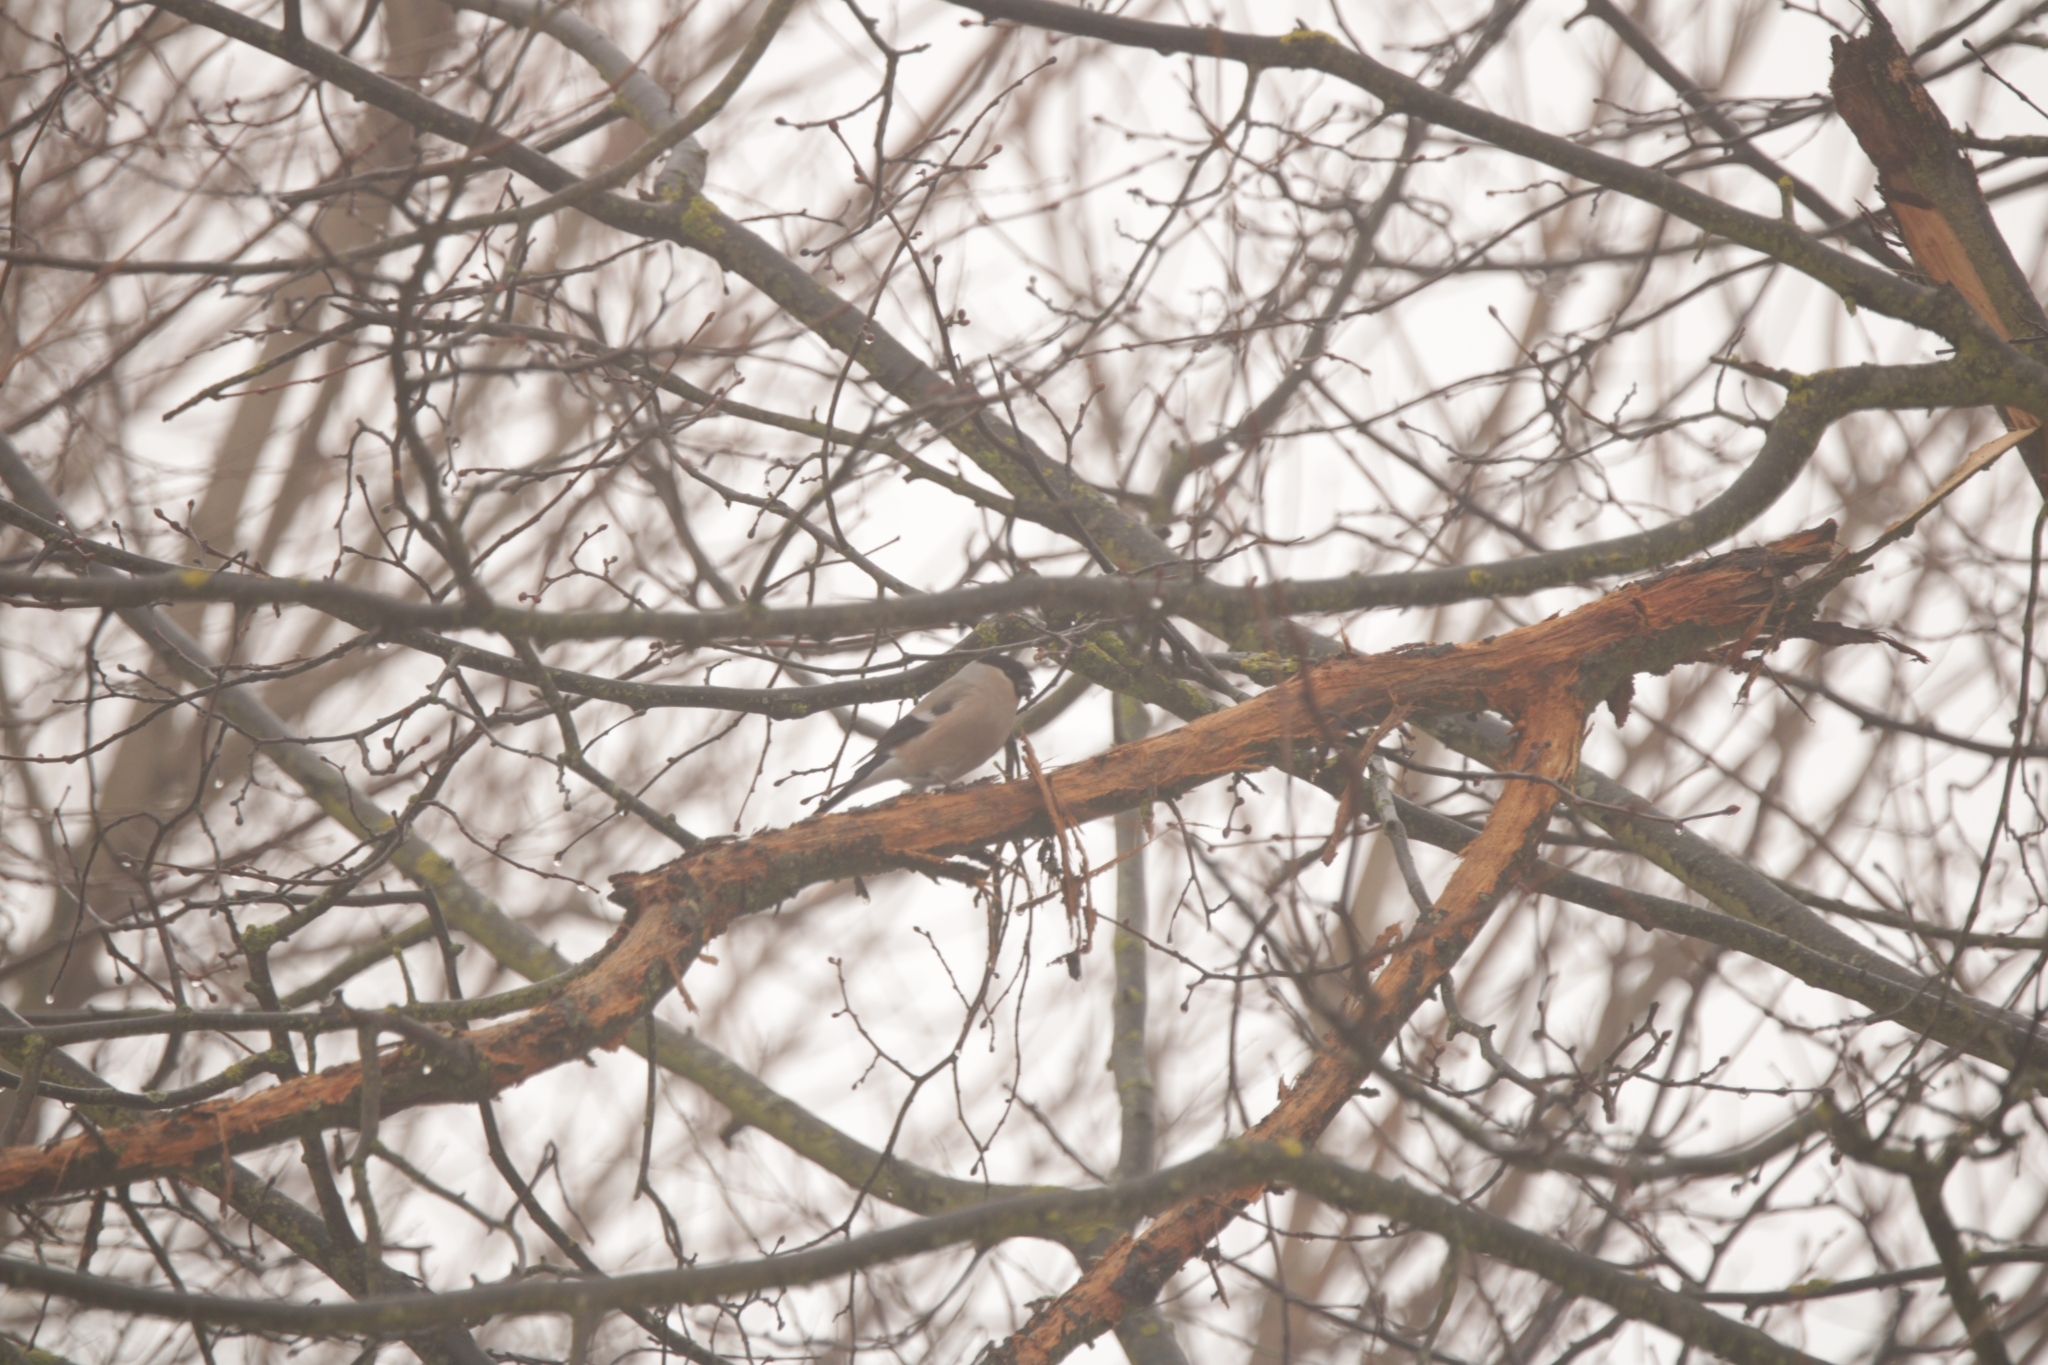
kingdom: Animalia
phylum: Chordata
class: Aves
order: Passeriformes
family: Fringillidae
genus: Pyrrhula
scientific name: Pyrrhula pyrrhula
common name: Eurasian bullfinch
